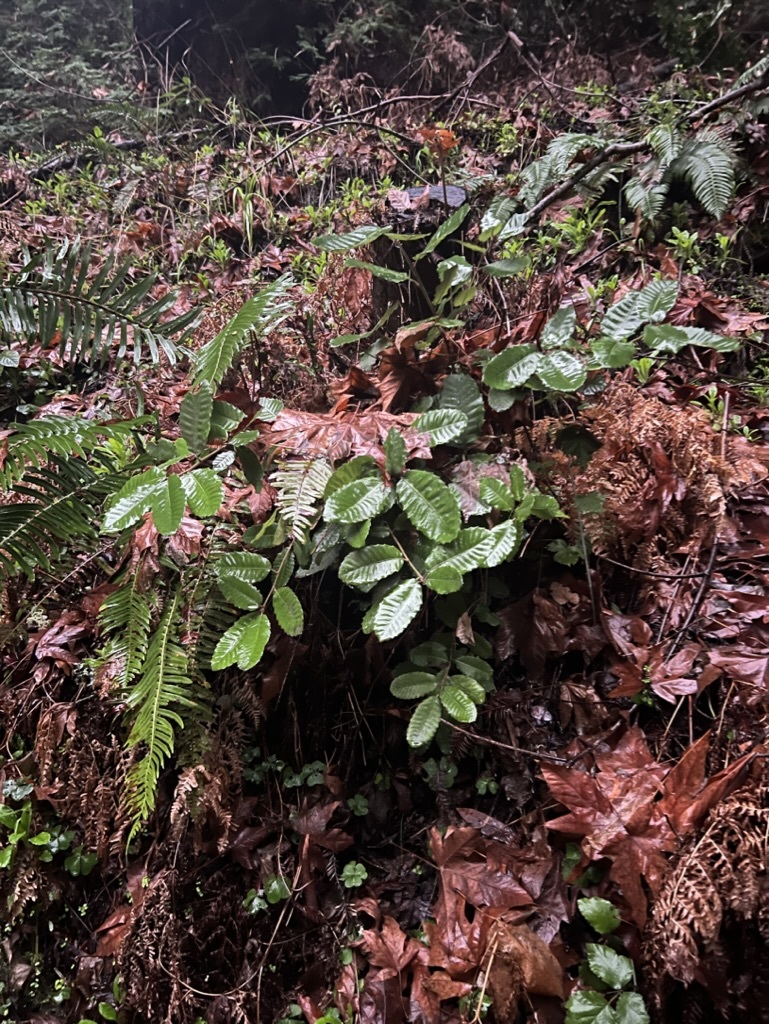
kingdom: Plantae
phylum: Tracheophyta
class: Magnoliopsida
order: Fagales
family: Fagaceae
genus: Notholithocarpus
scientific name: Notholithocarpus densiflorus
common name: Tan bark oak
